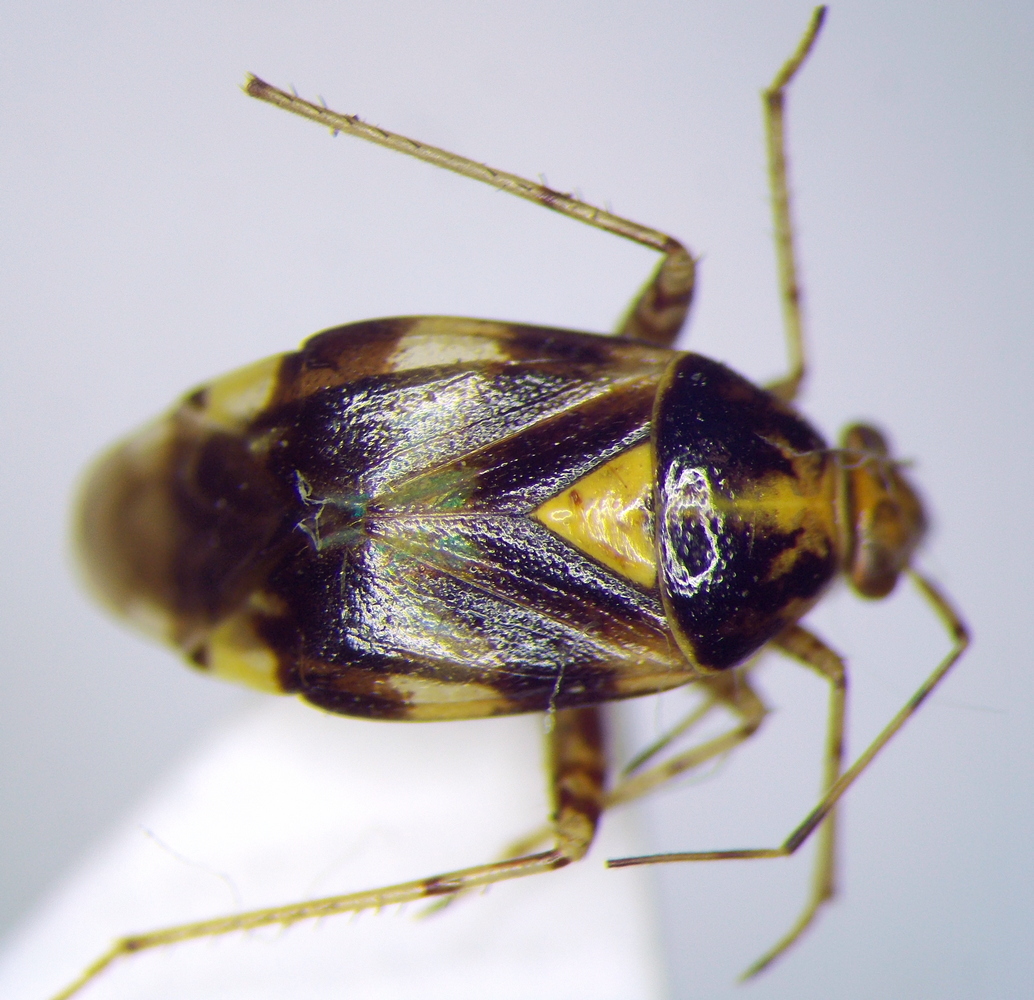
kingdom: Animalia
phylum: Arthropoda
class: Insecta
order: Hemiptera
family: Miridae
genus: Liocoris
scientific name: Liocoris tripustulatus
